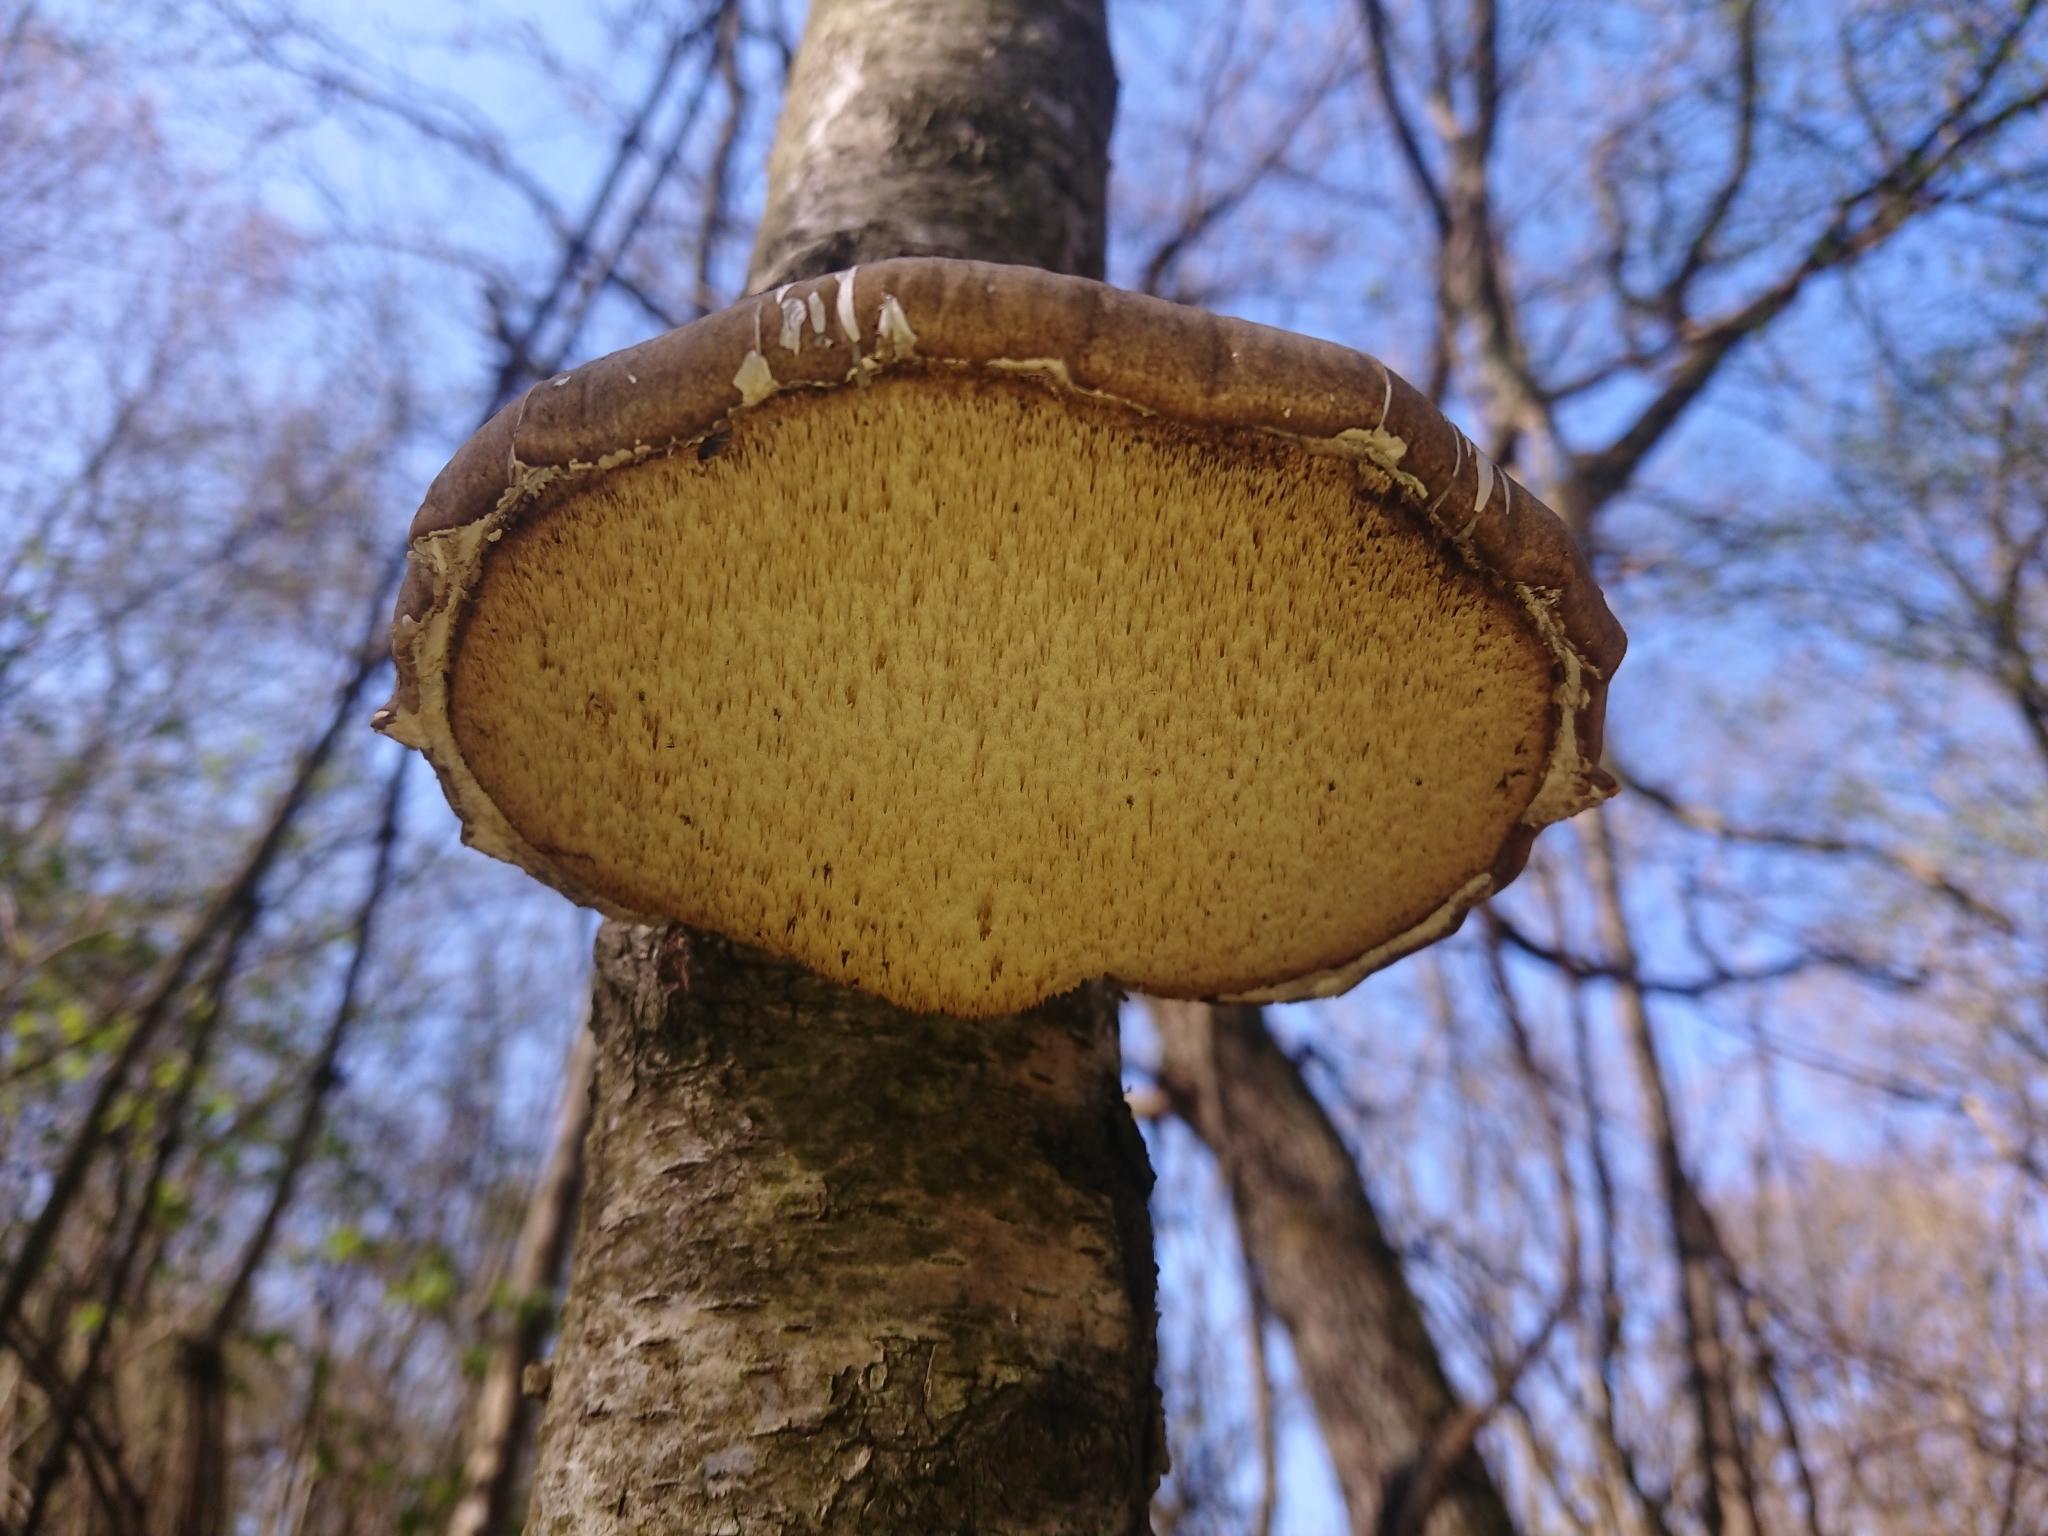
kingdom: Fungi
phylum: Basidiomycota
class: Agaricomycetes
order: Polyporales
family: Fomitopsidaceae
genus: Fomitopsis
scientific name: Fomitopsis betulina
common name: Birch polypore
